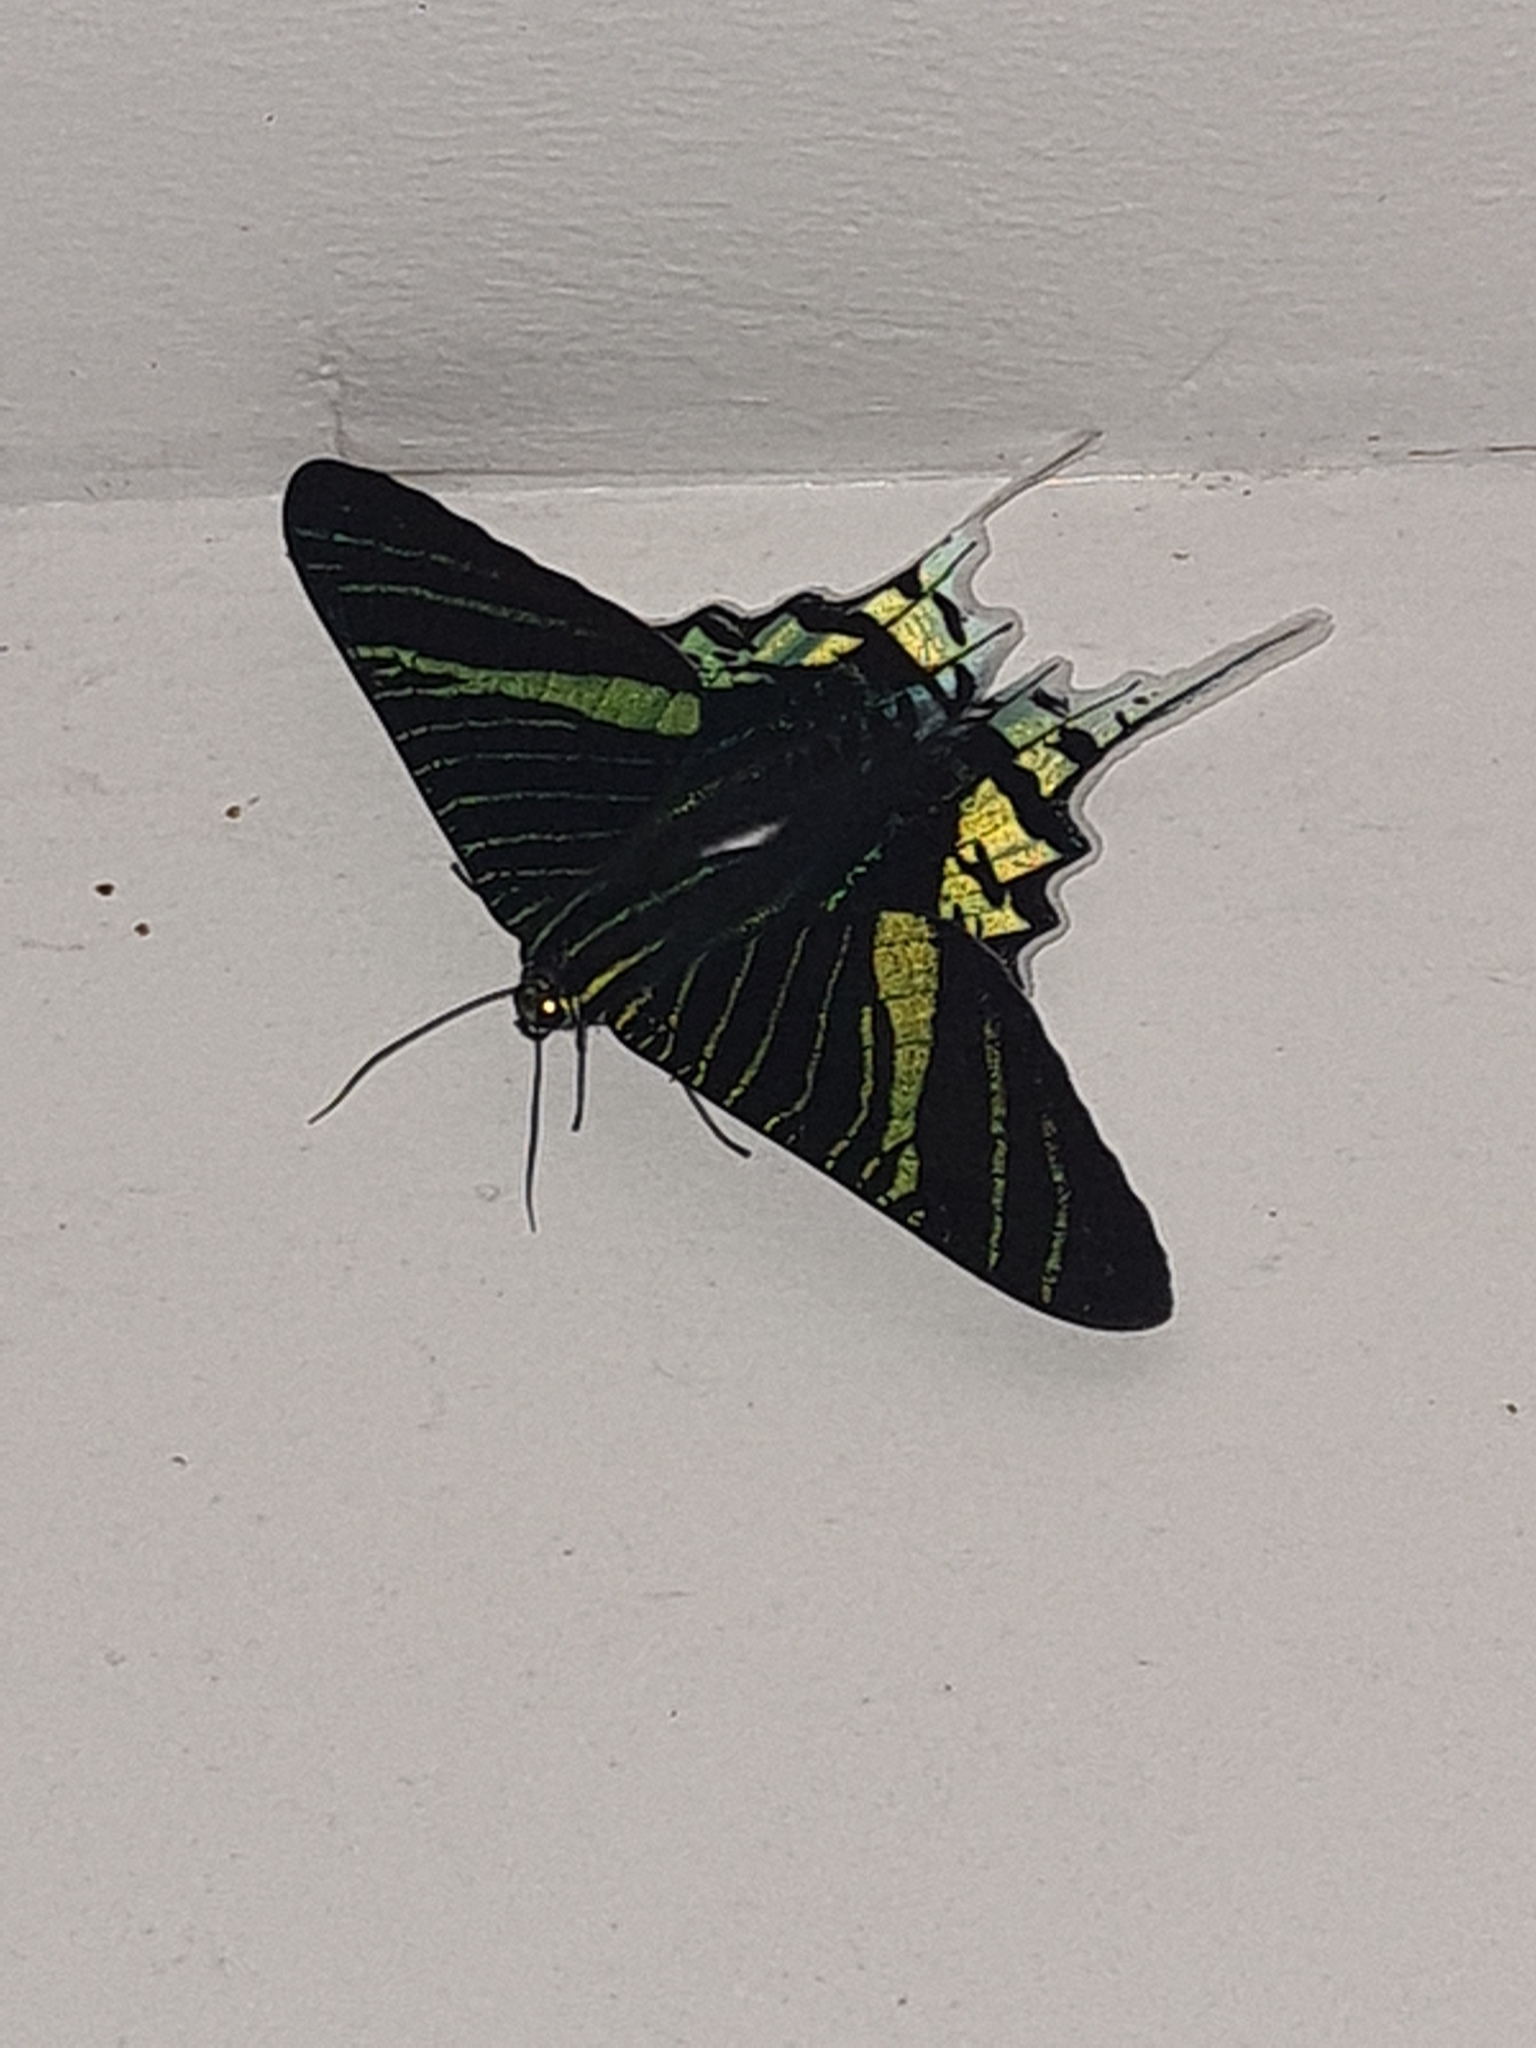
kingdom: Animalia
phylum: Arthropoda
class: Insecta
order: Lepidoptera
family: Uraniidae
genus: Urania
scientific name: Urania leilus
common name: Peacock moth
